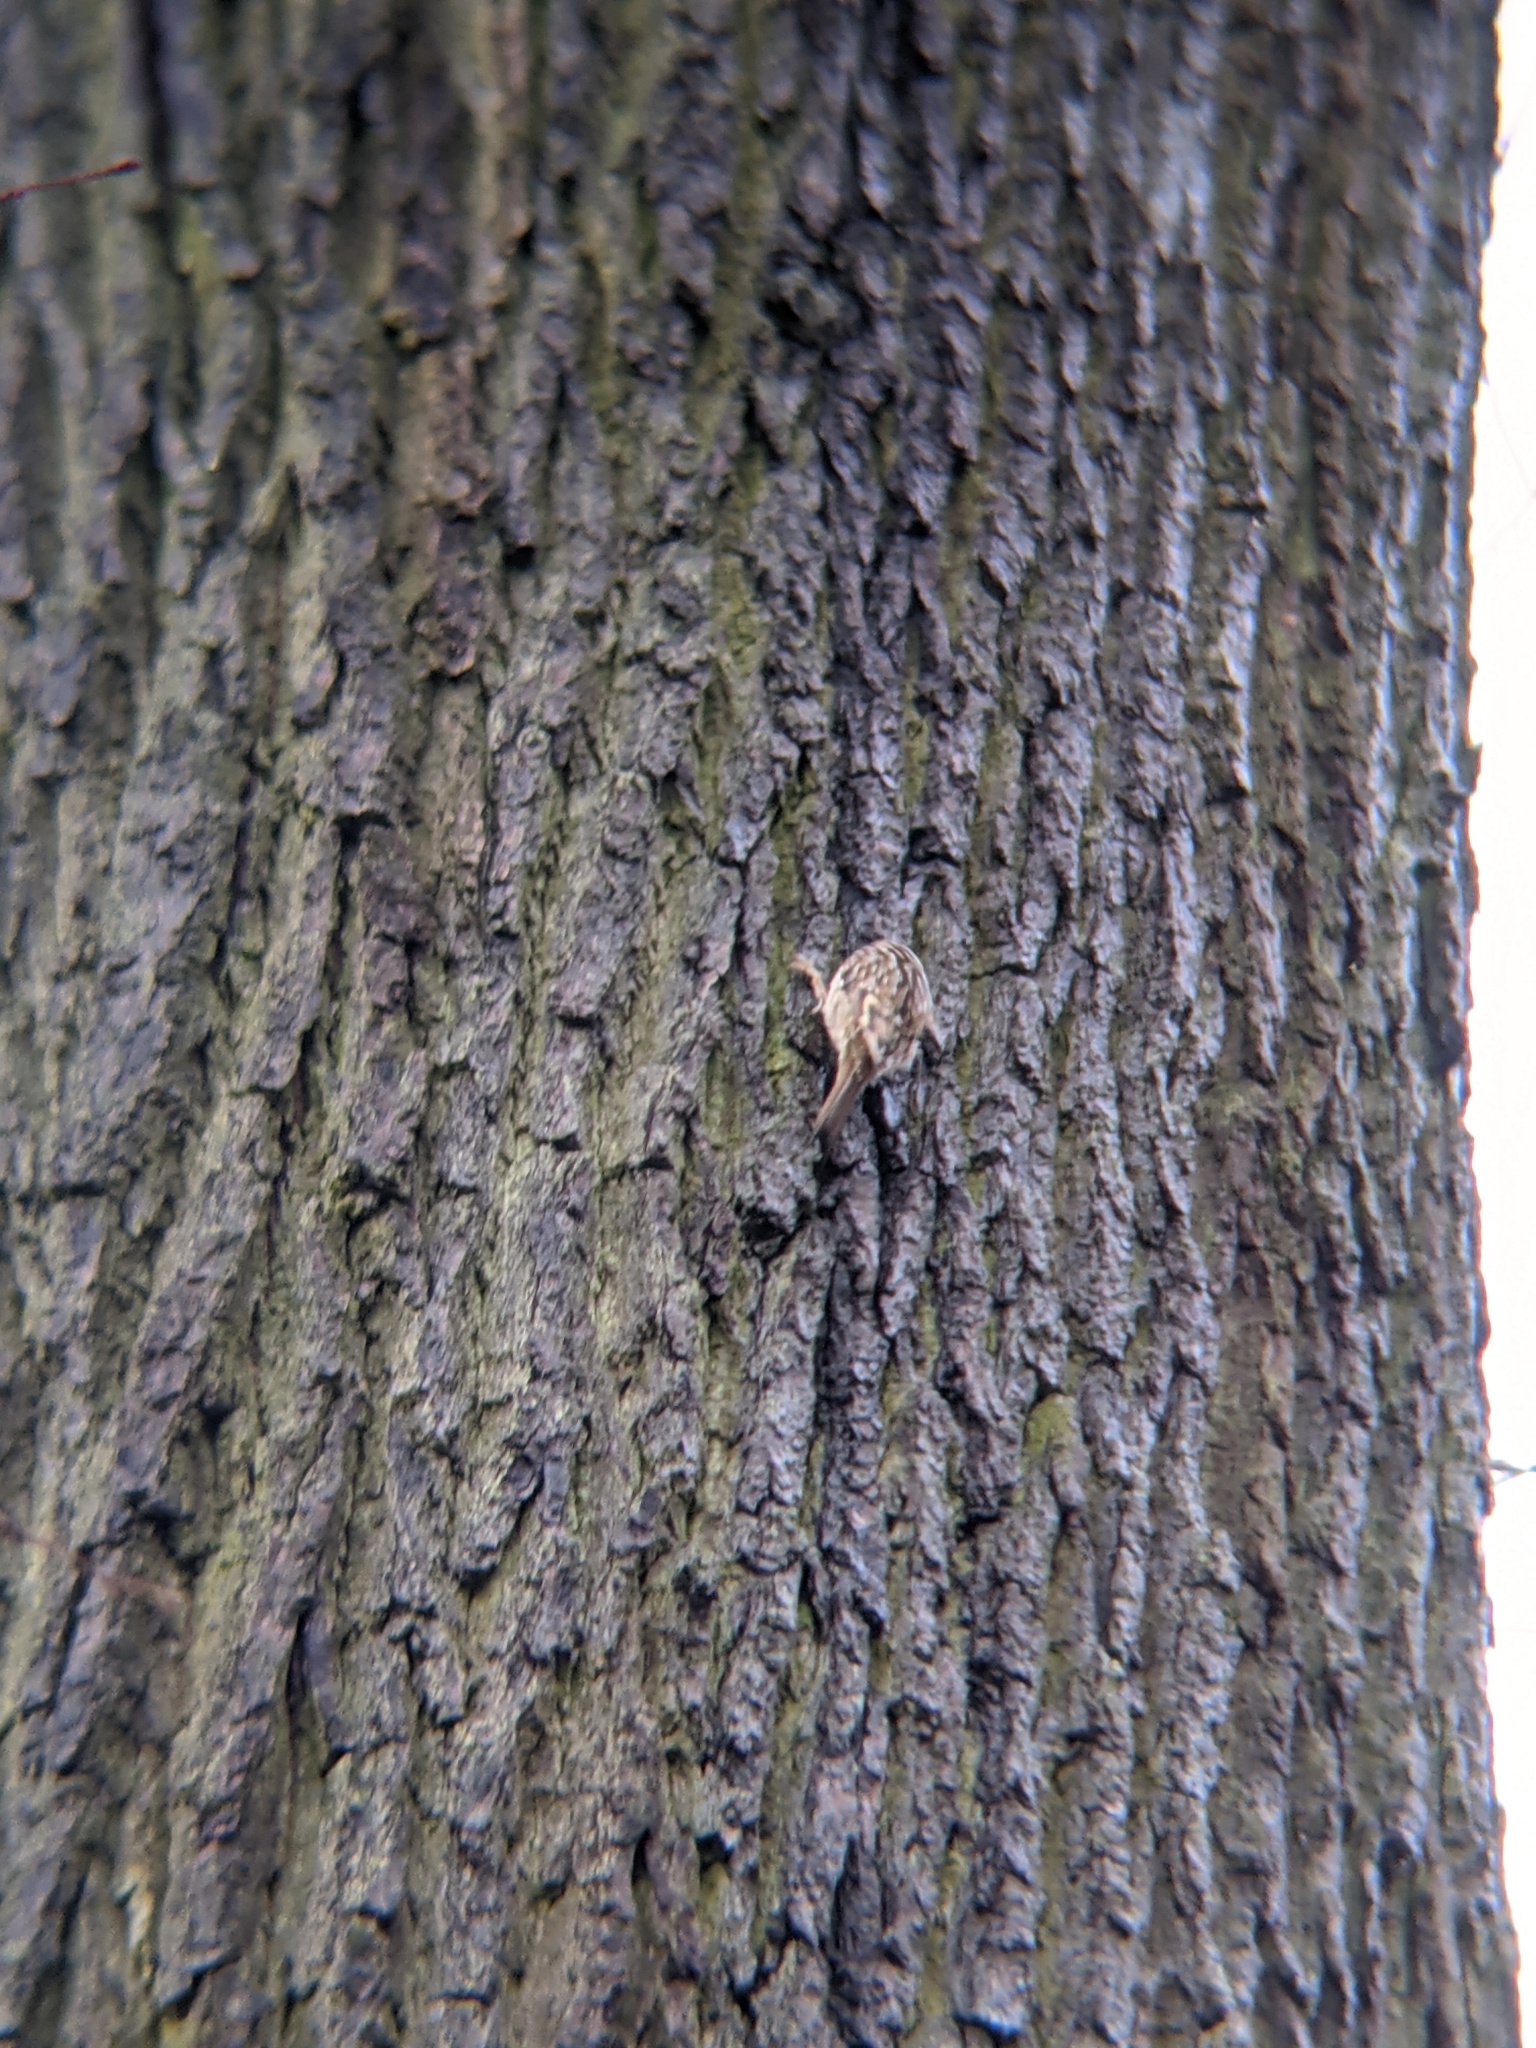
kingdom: Animalia
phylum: Chordata
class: Aves
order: Passeriformes
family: Certhiidae
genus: Certhia
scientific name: Certhia brachydactyla
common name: Short-toed treecreeper
